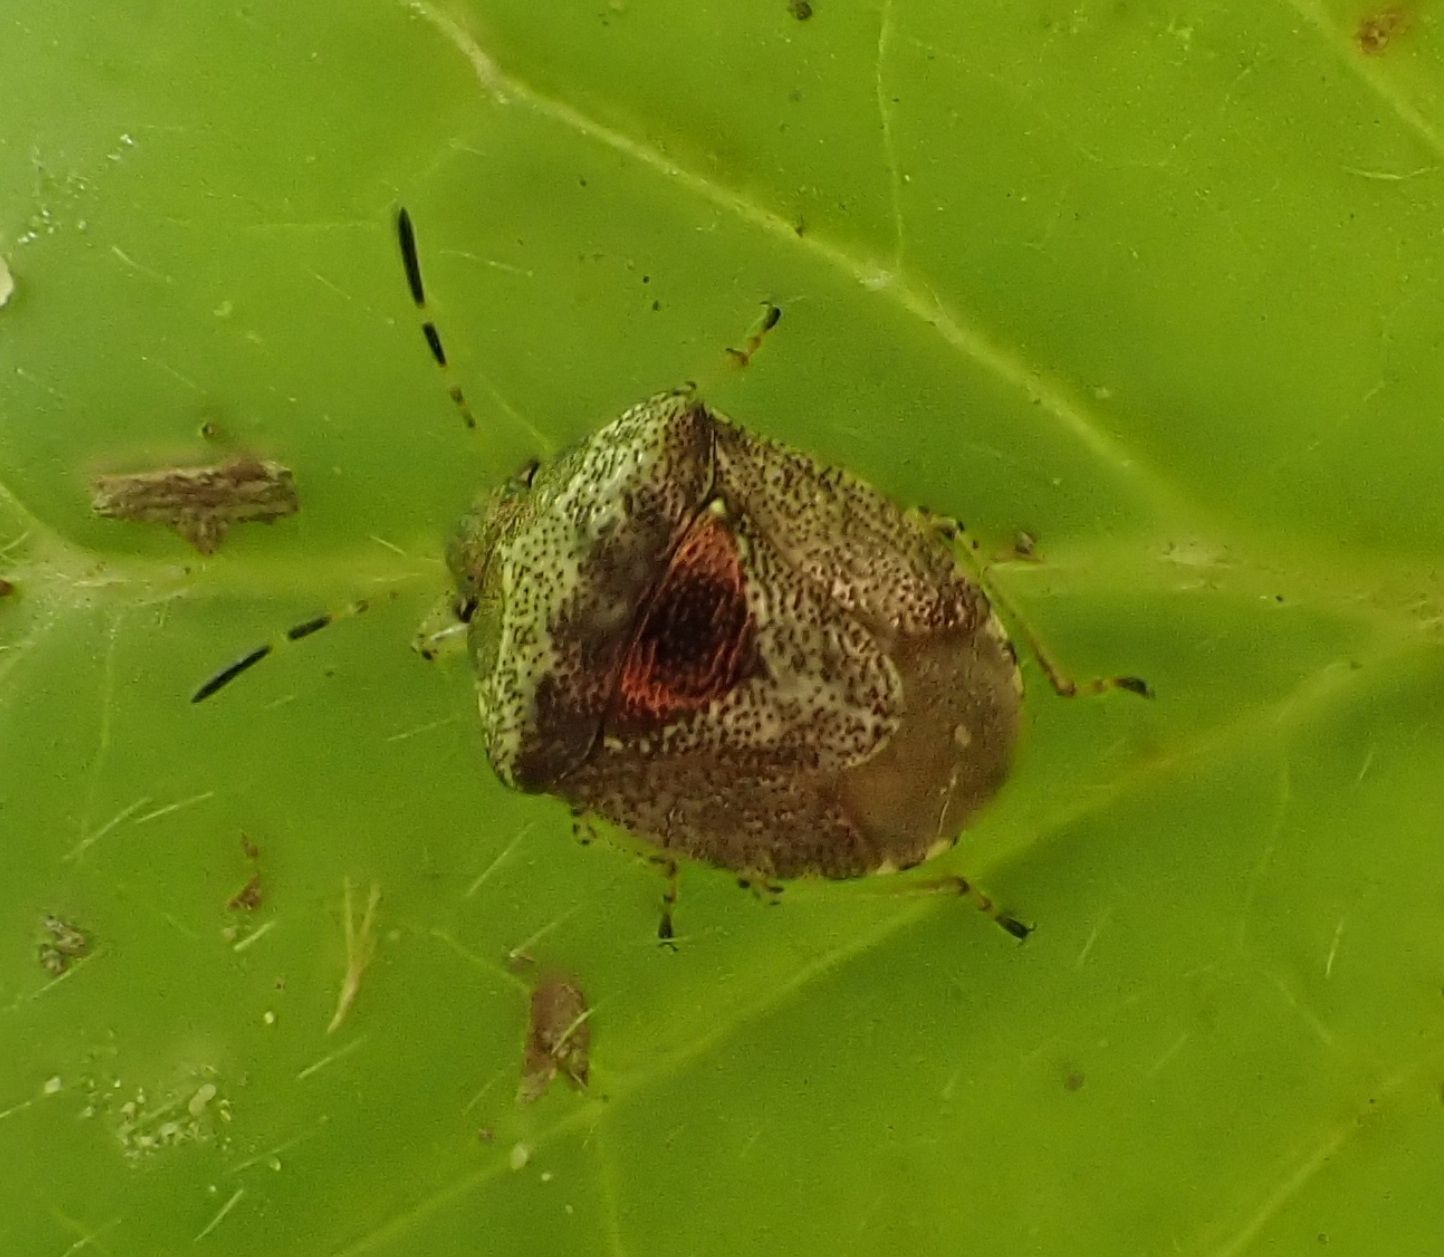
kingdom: Animalia
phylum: Arthropoda
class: Insecta
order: Hemiptera
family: Pentatomidae
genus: Eysarcoris
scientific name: Eysarcoris venustissimus
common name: Woundwort shieldbug
